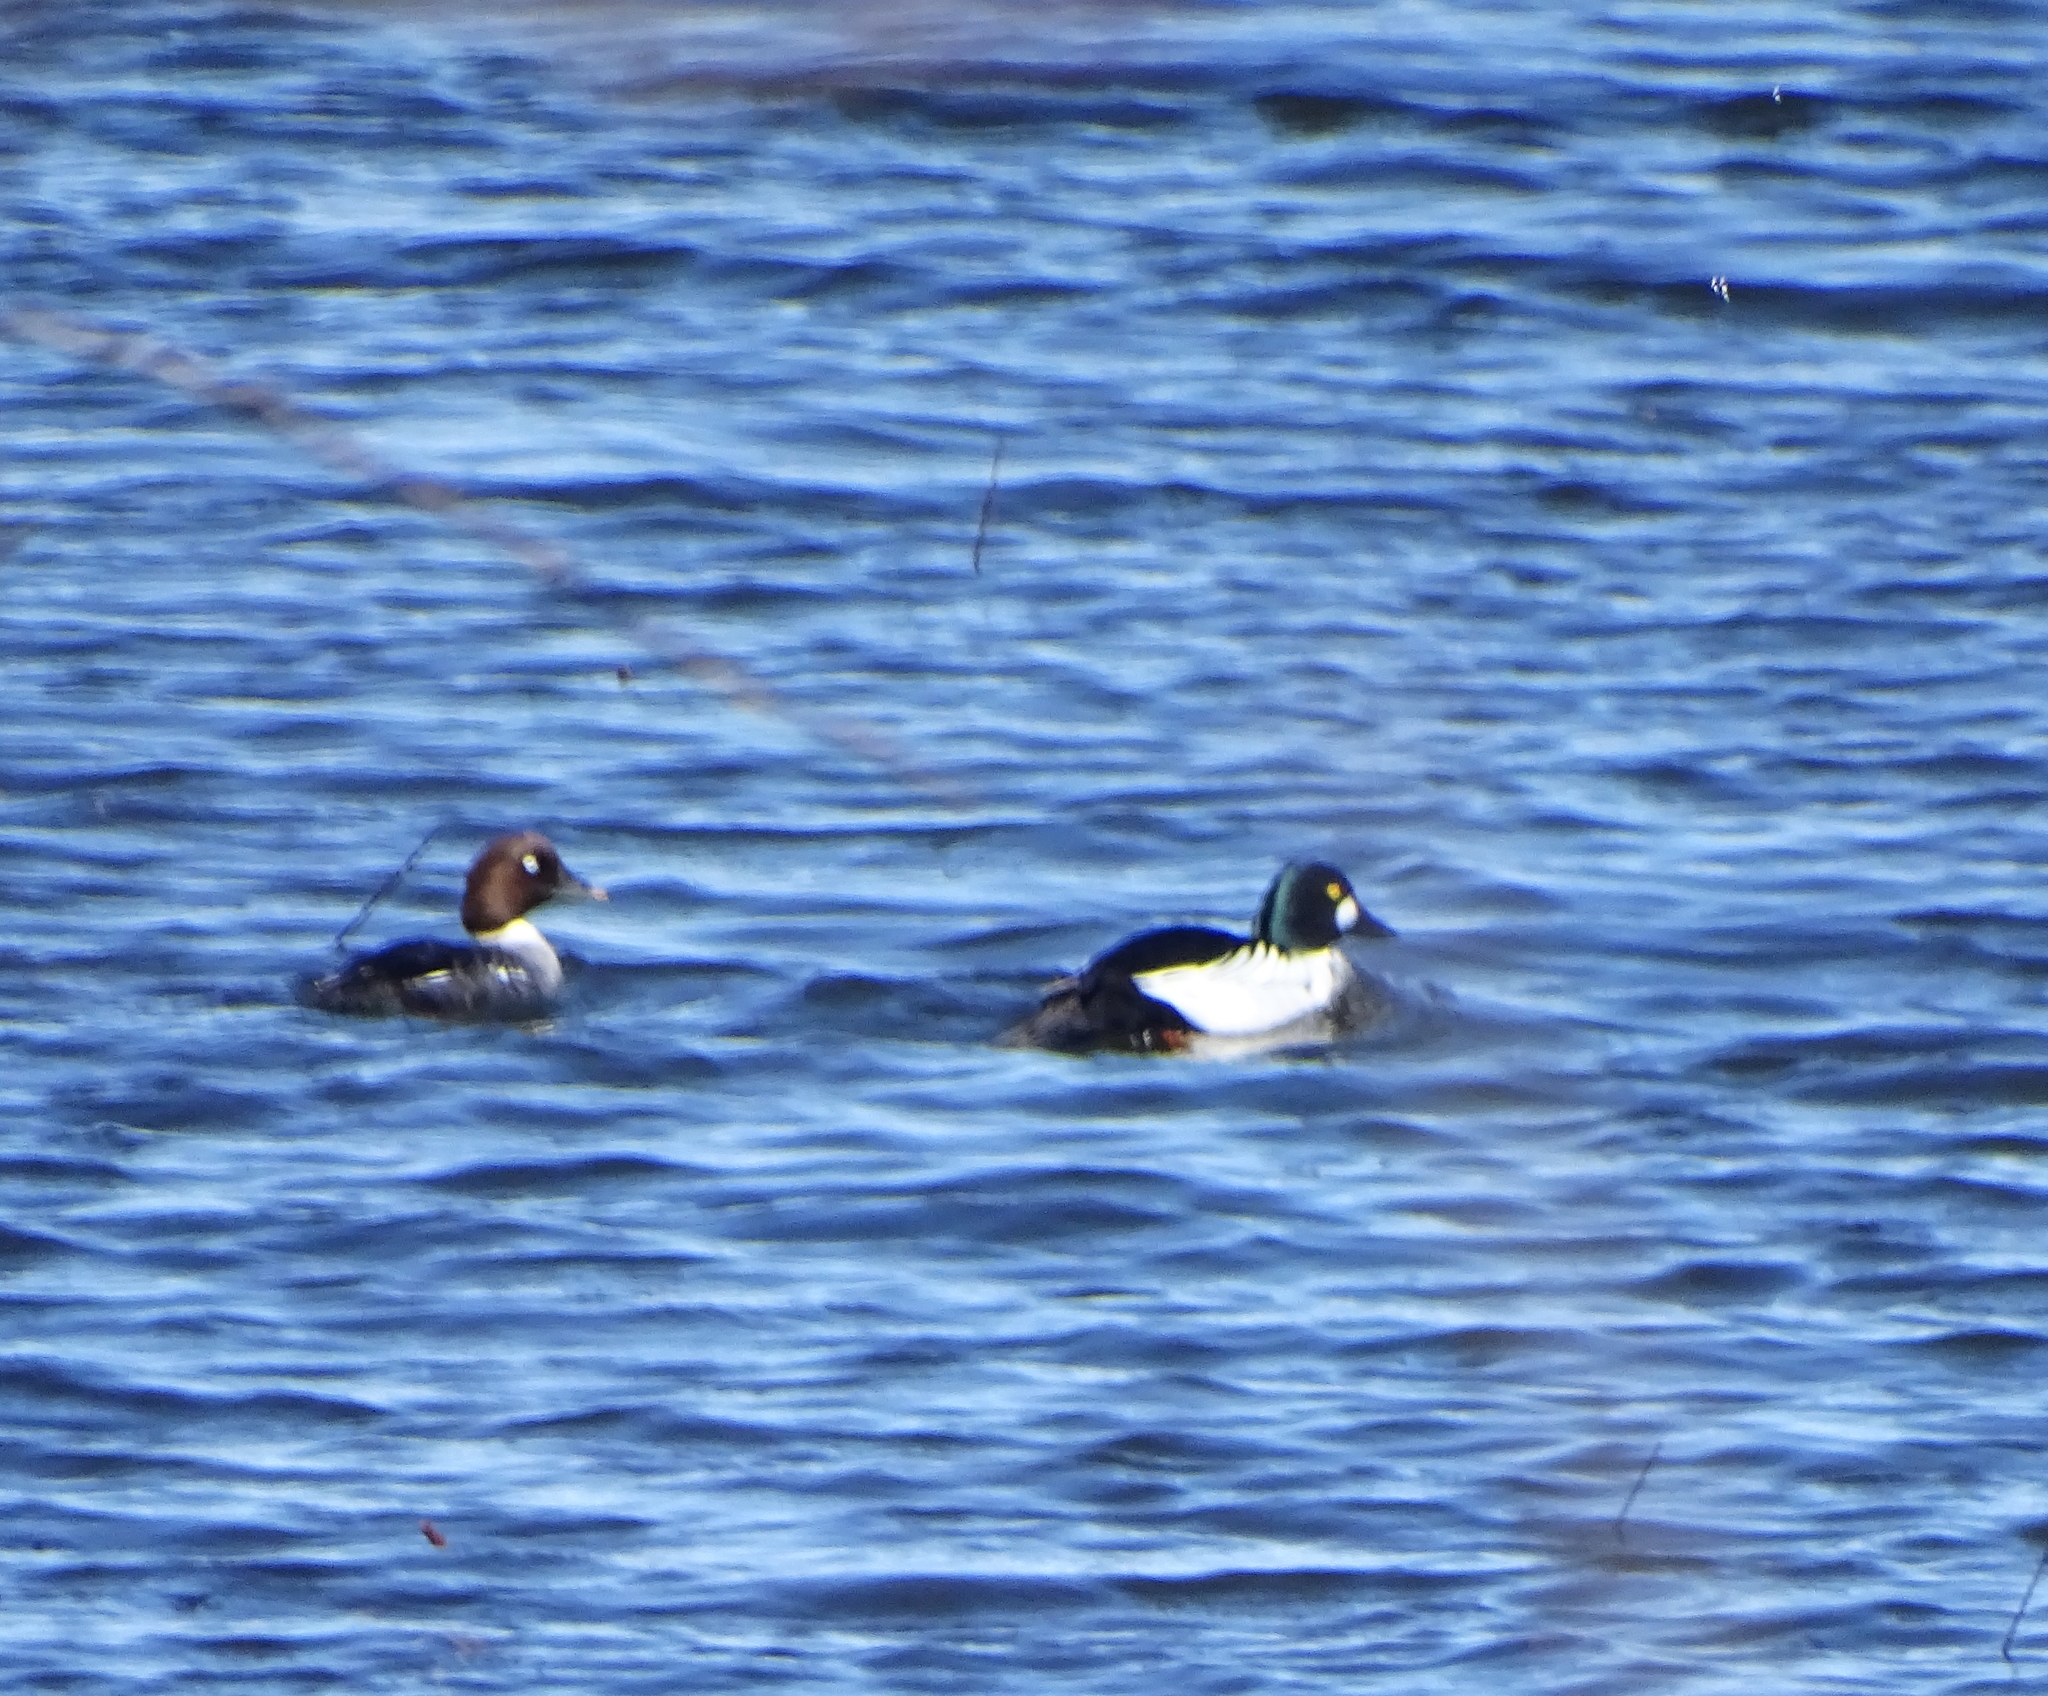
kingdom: Animalia
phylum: Chordata
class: Aves
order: Anseriformes
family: Anatidae
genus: Bucephala
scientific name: Bucephala clangula
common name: Common goldeneye
